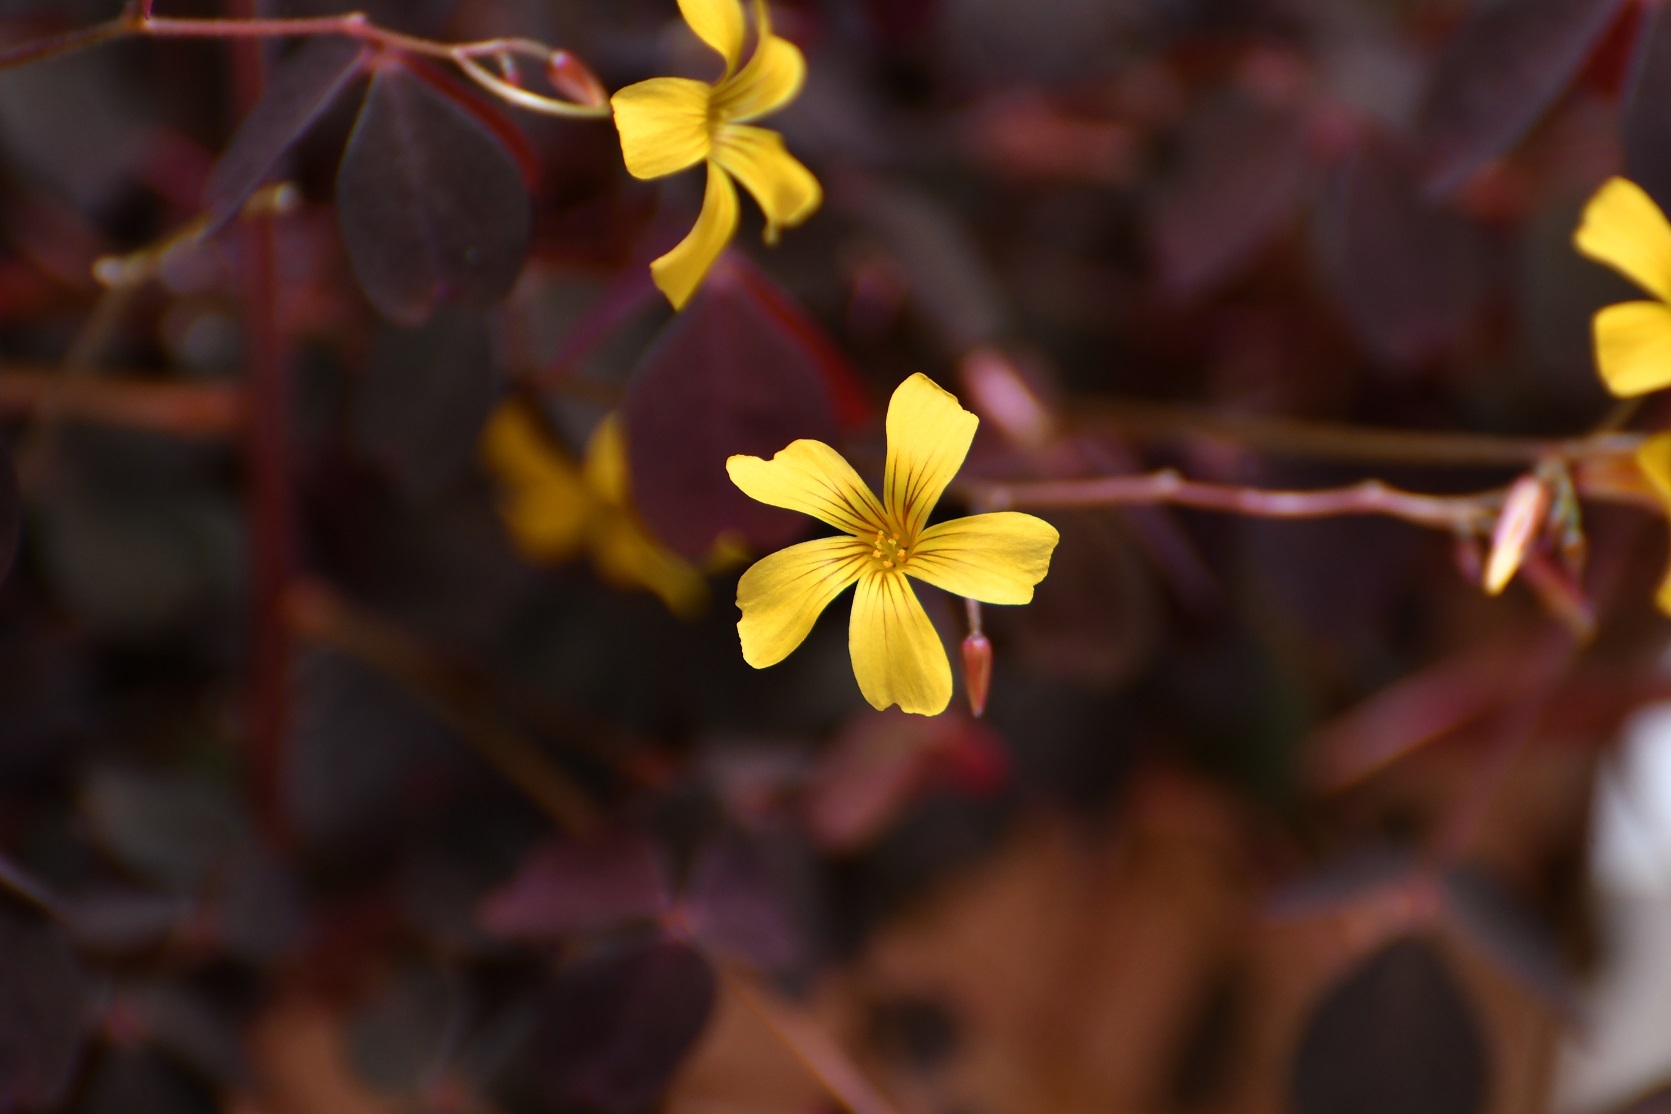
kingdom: Plantae
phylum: Tracheophyta
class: Magnoliopsida
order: Oxalidales
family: Oxalidaceae
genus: Oxalis
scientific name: Oxalis spiralis
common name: Spiral sorrel
